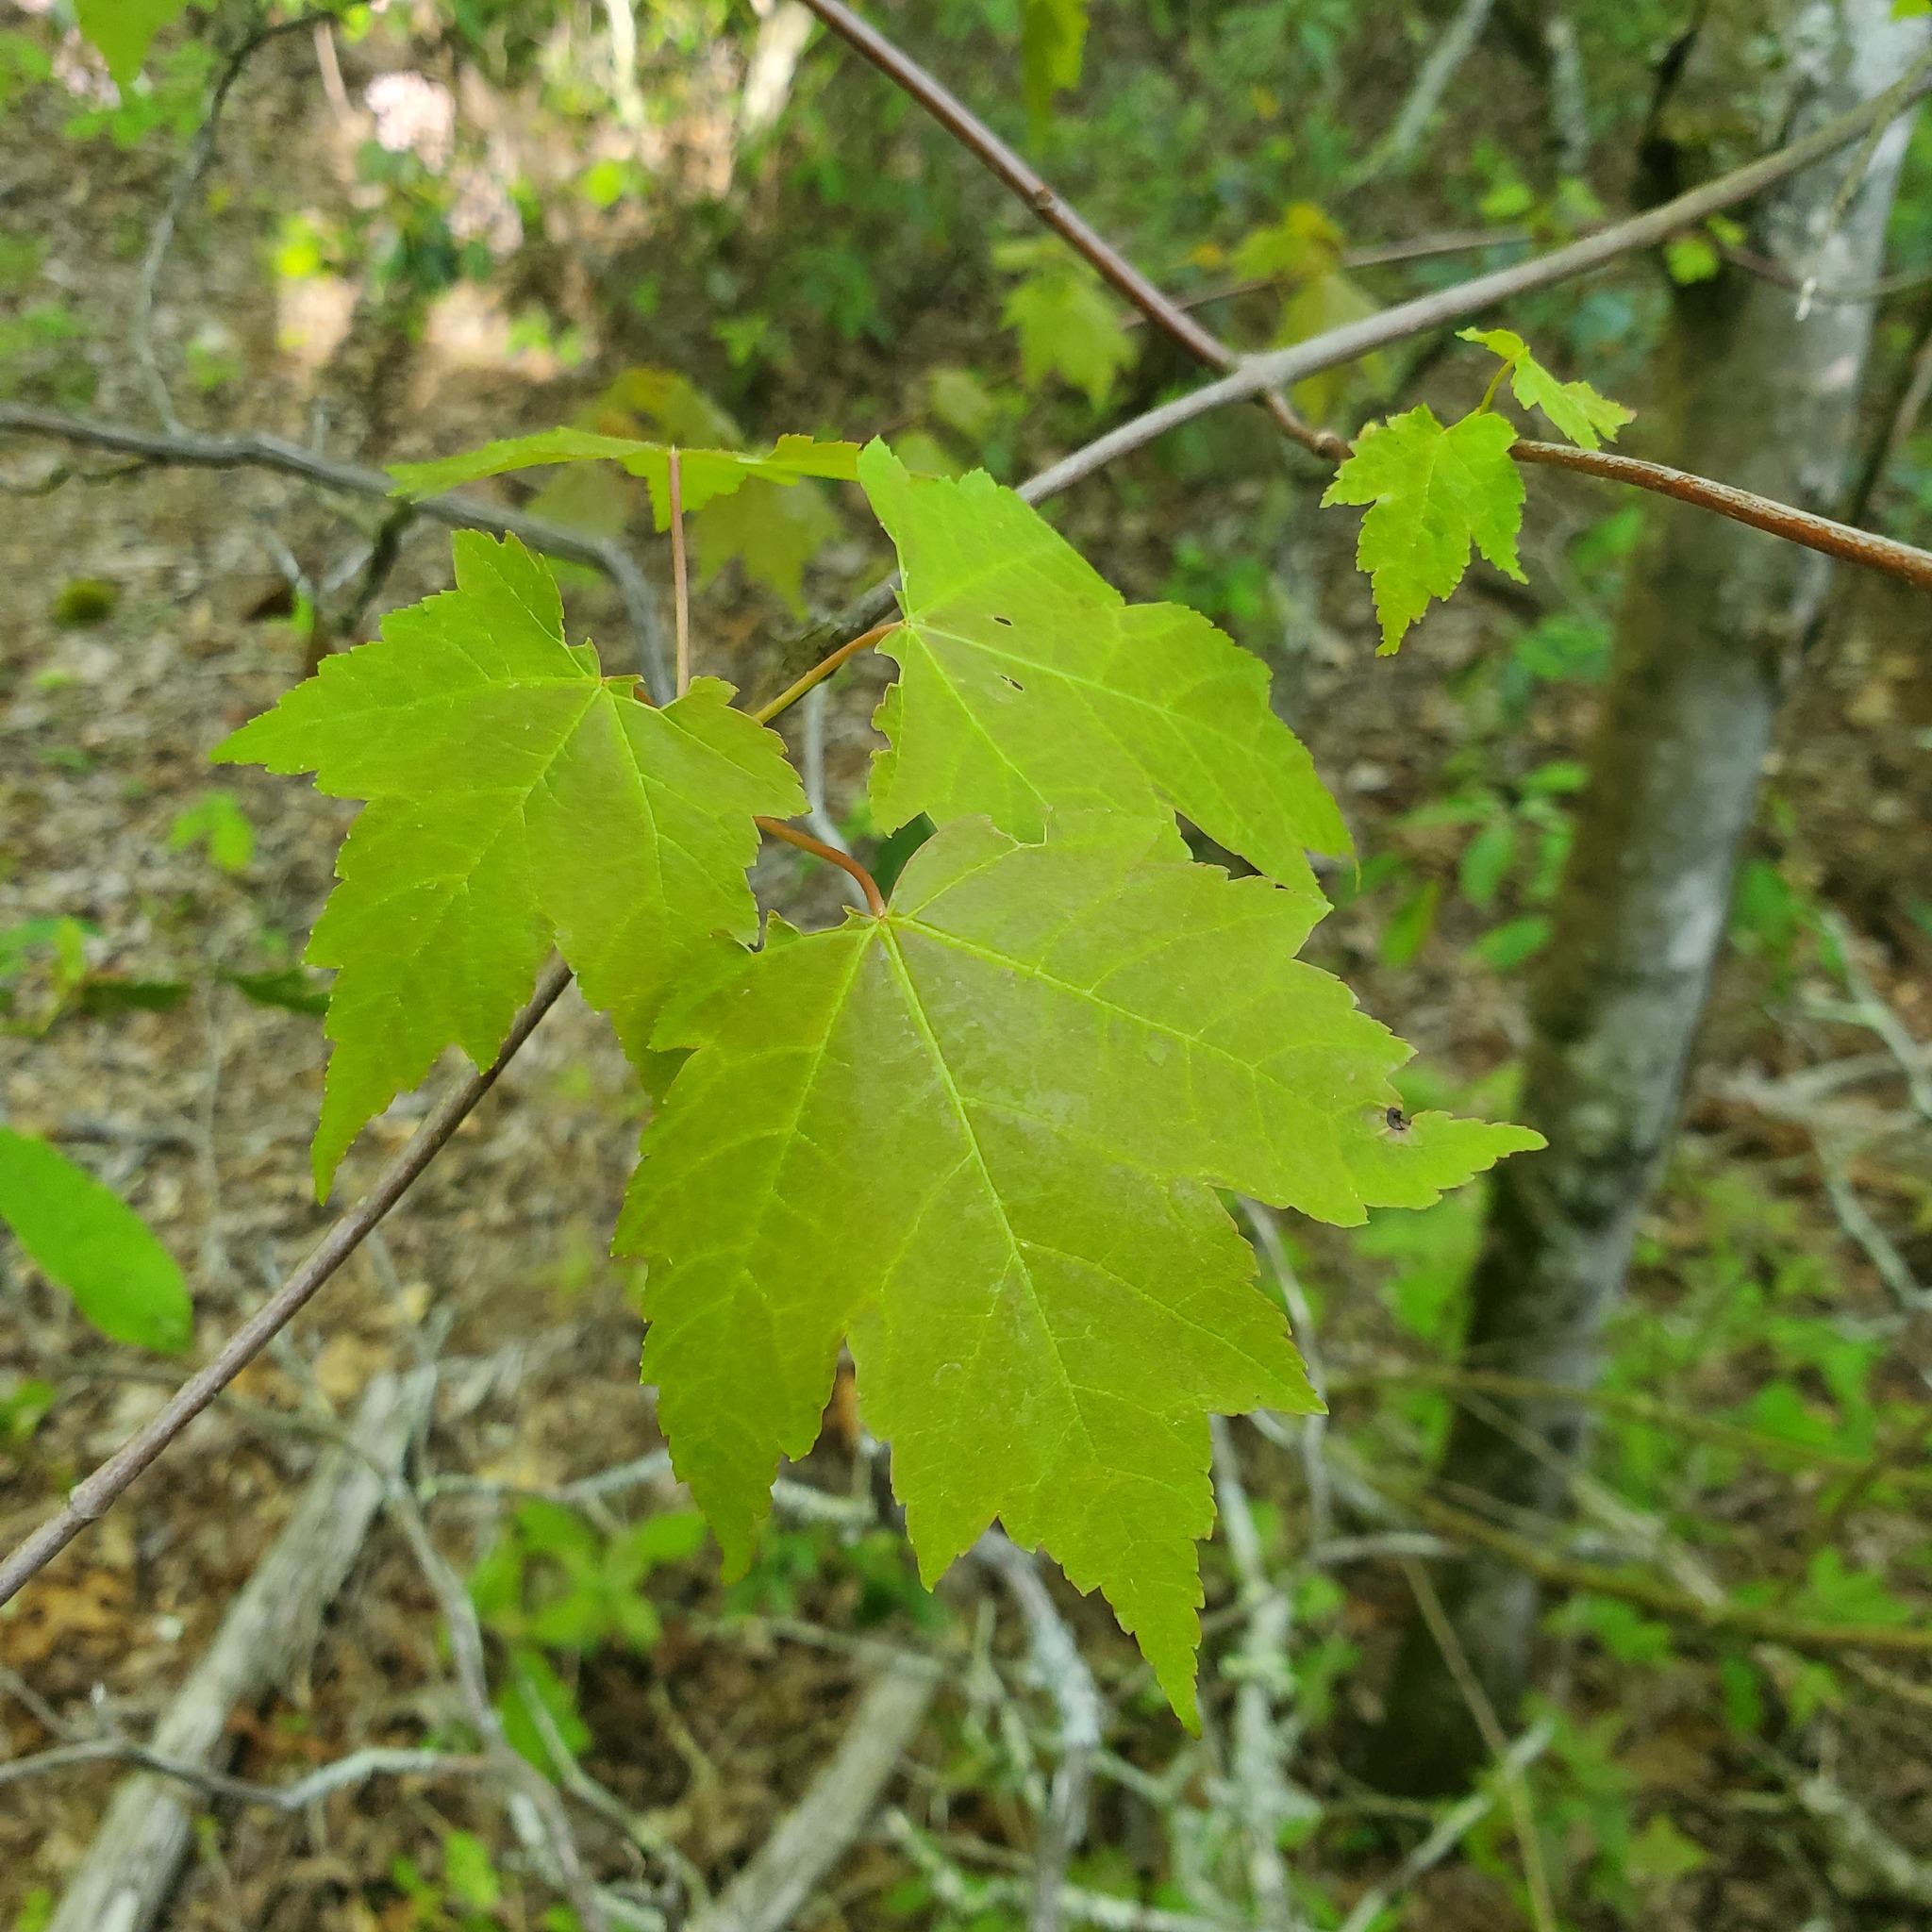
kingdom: Plantae
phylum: Tracheophyta
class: Magnoliopsida
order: Sapindales
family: Sapindaceae
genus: Acer
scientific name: Acer rubrum
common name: Red maple
